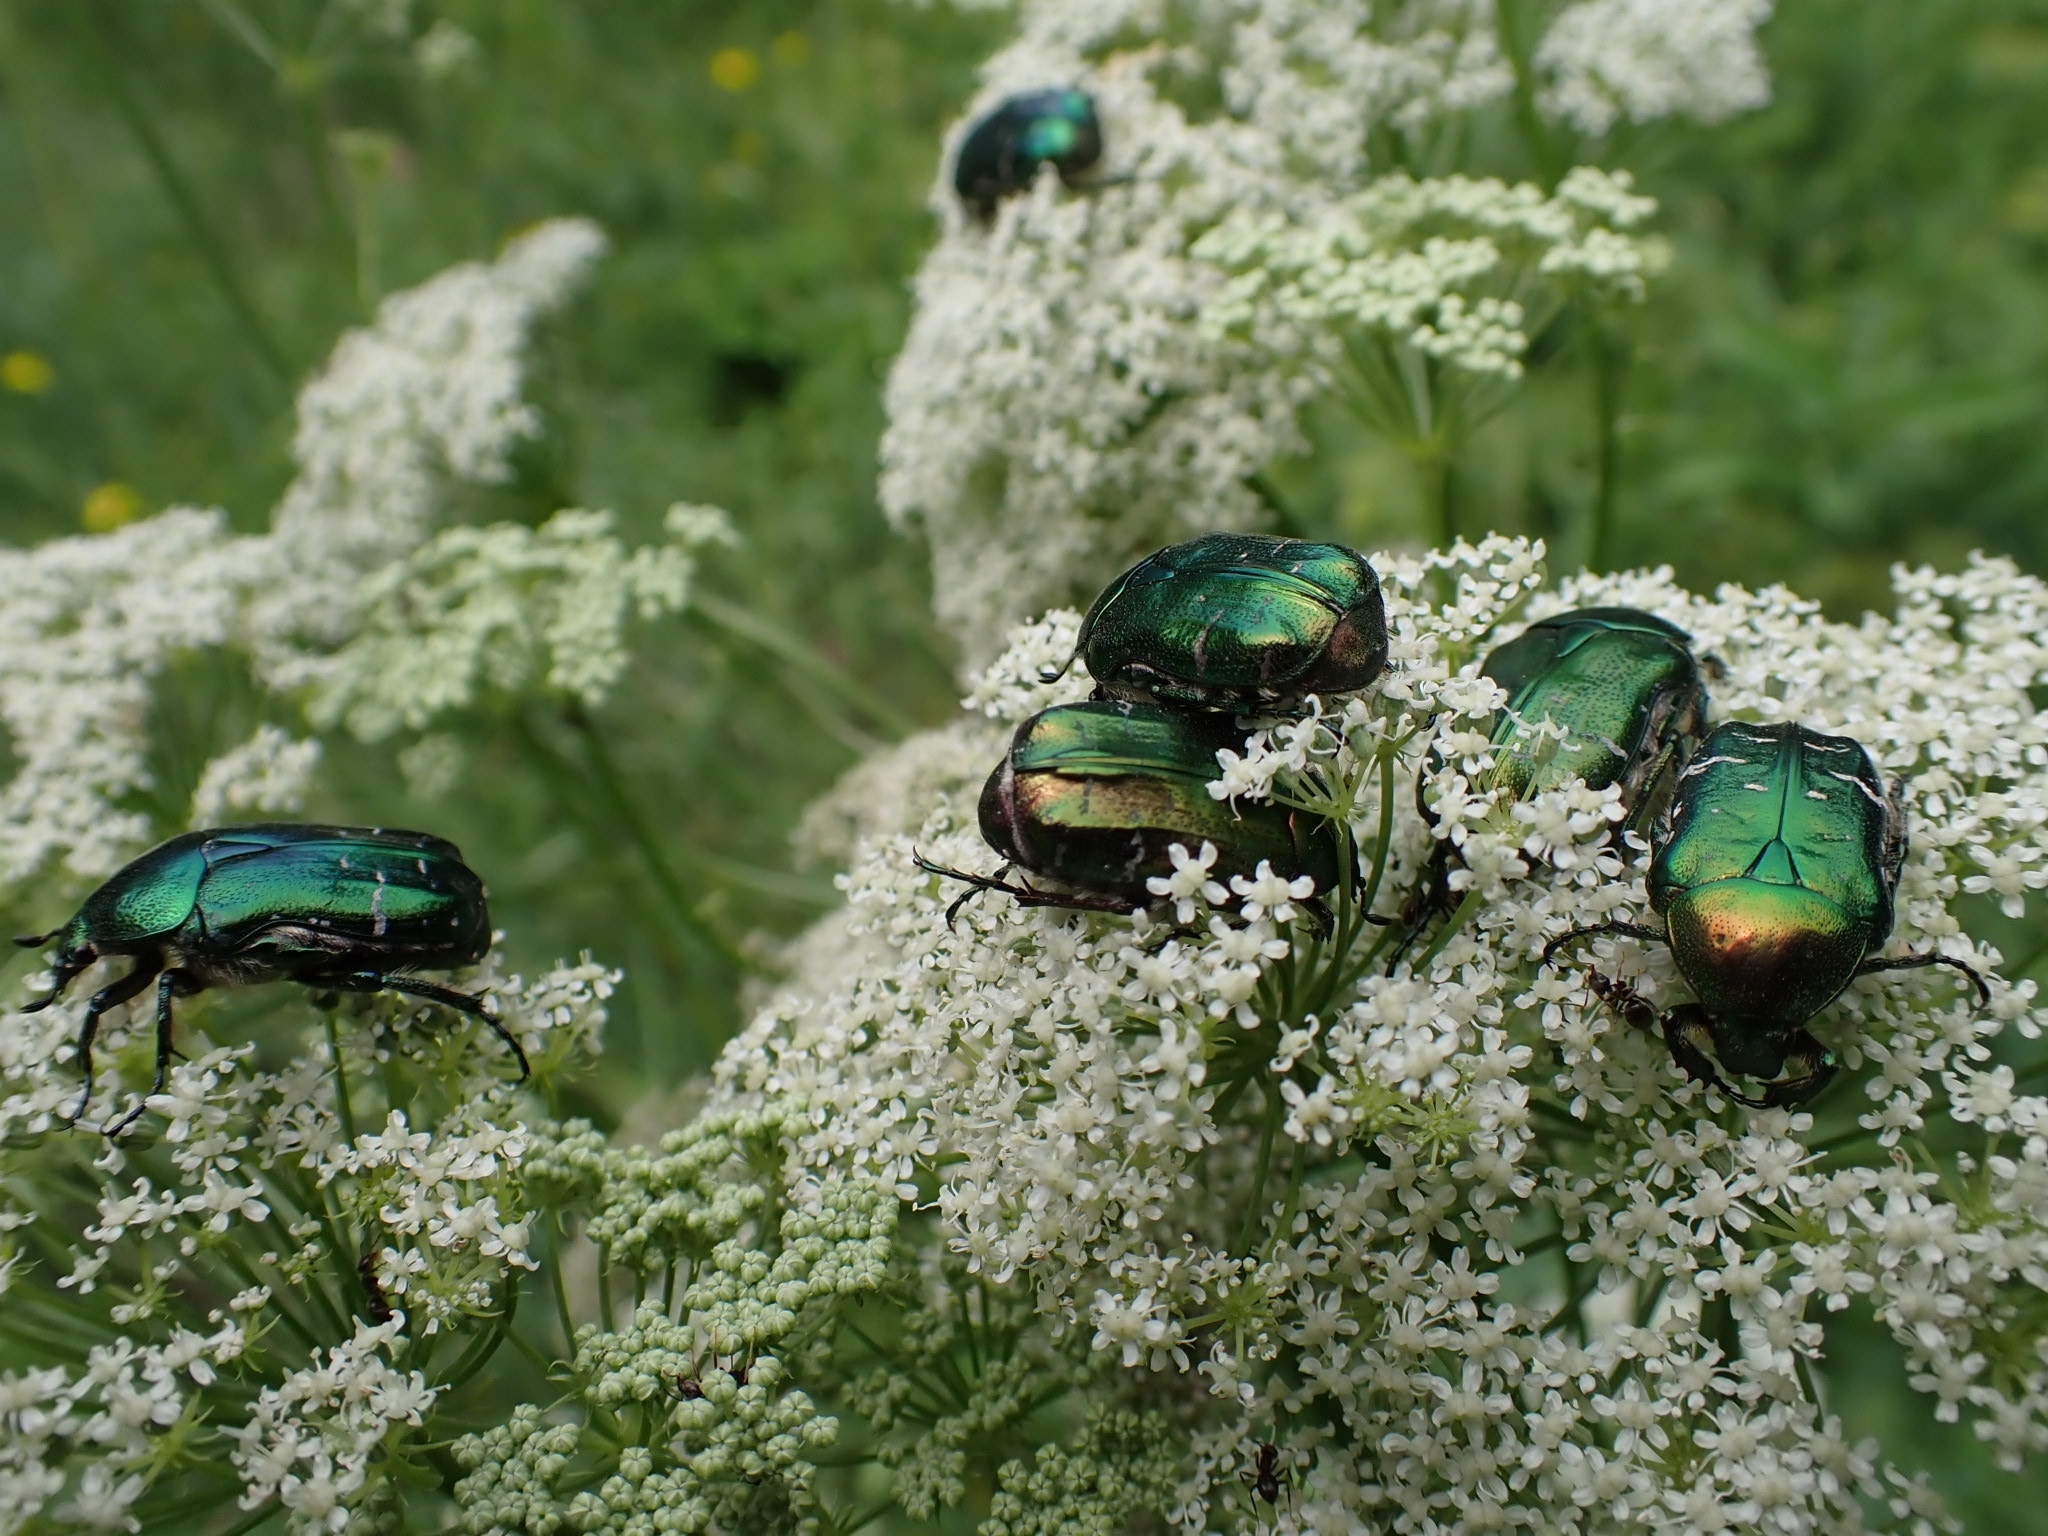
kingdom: Animalia
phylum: Arthropoda
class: Insecta
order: Coleoptera
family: Scarabaeidae
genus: Cetonia
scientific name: Cetonia aurata
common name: Rose chafer
